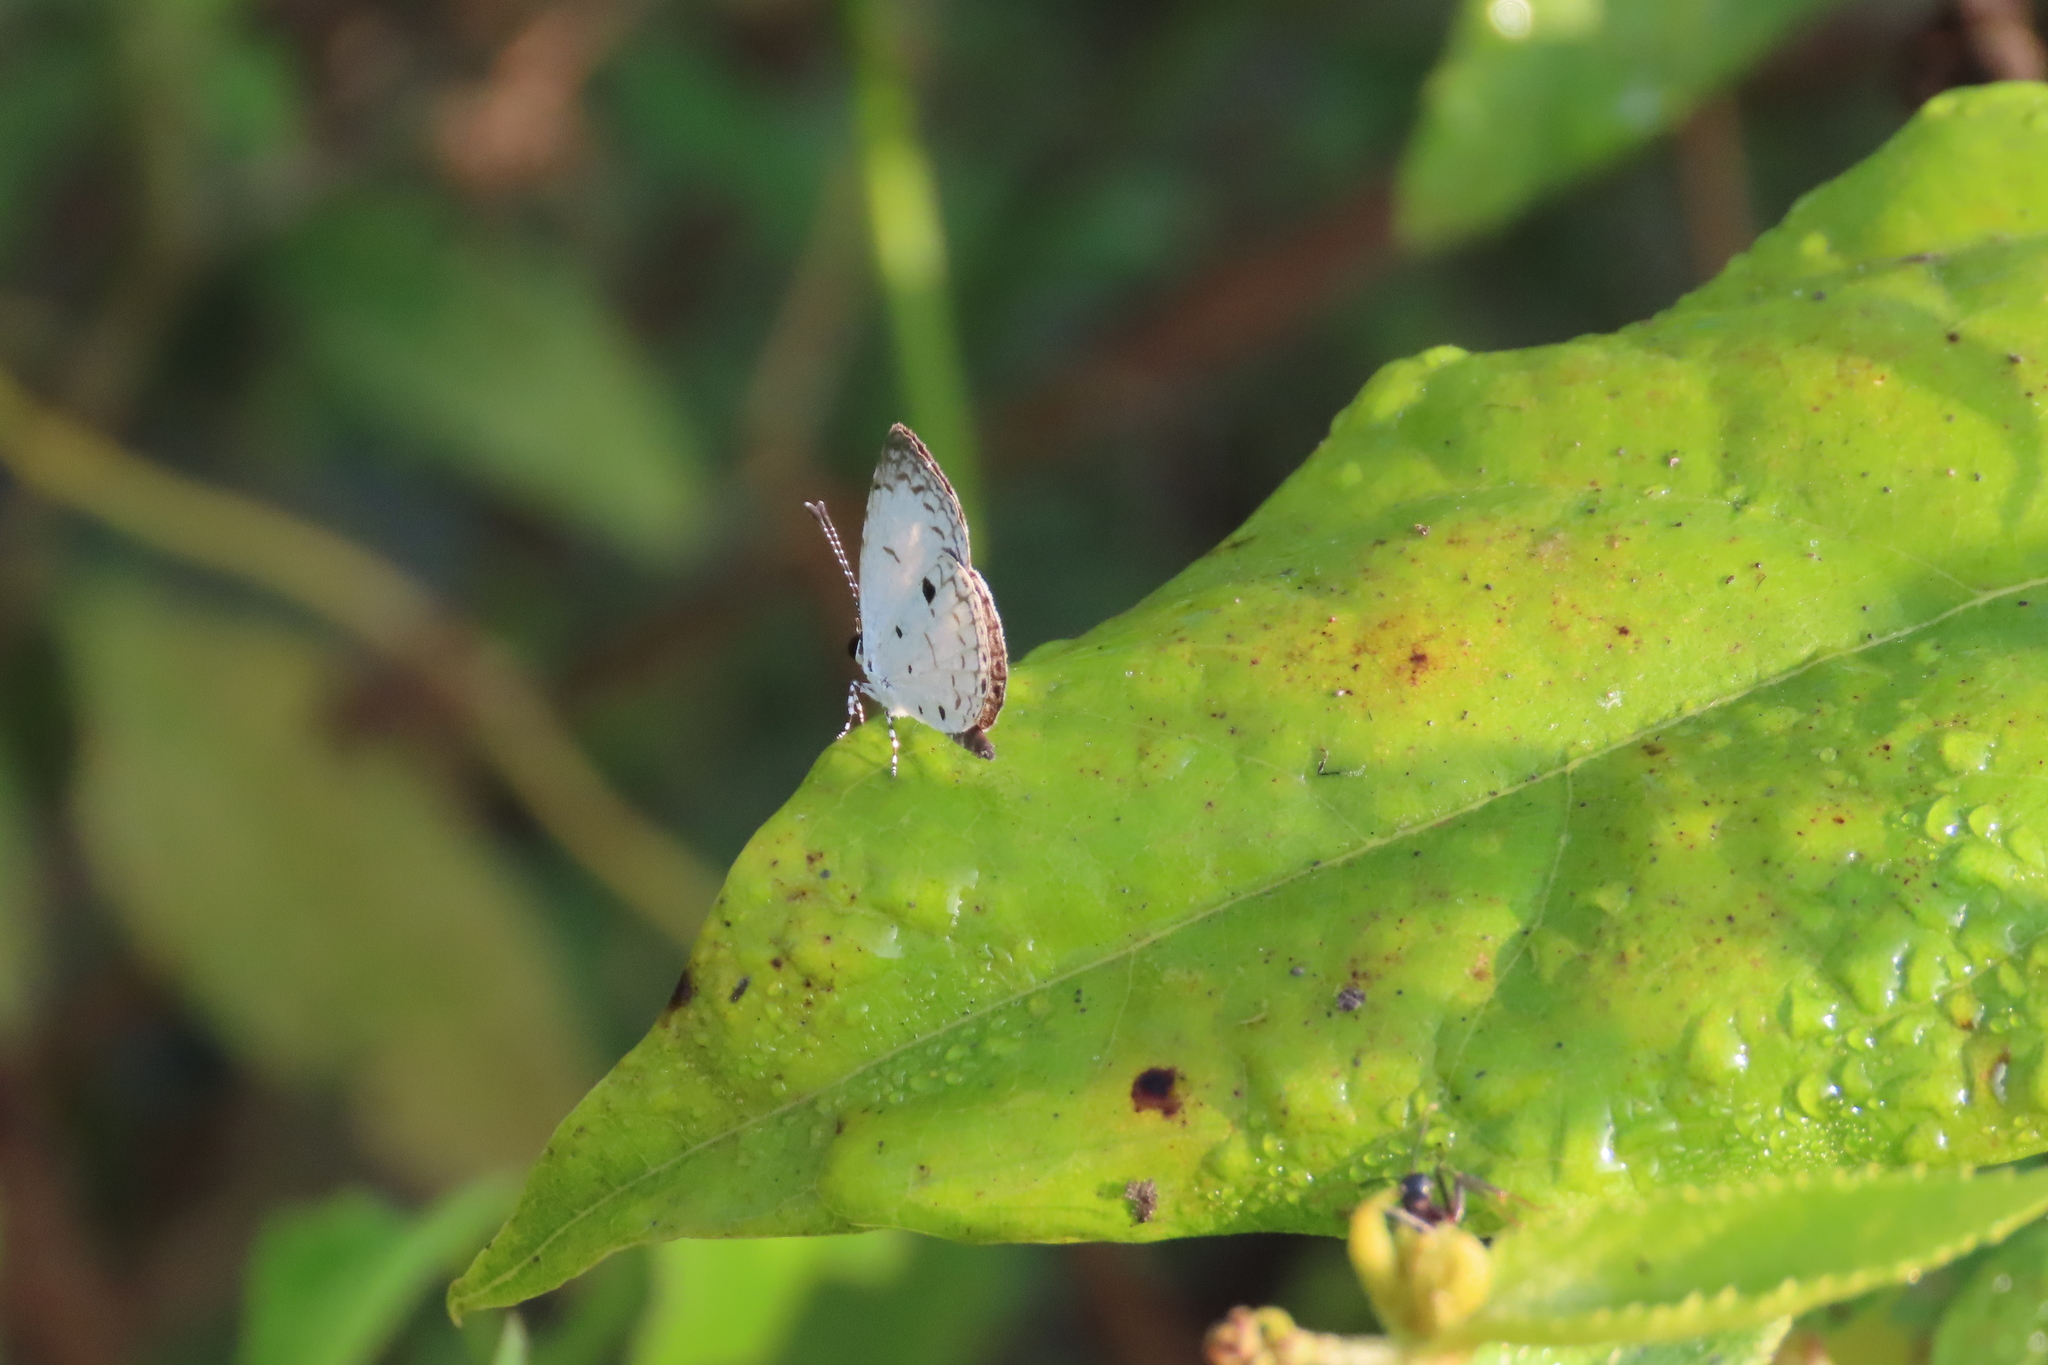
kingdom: Animalia
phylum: Arthropoda
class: Insecta
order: Lepidoptera
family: Lycaenidae
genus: Neopithecops
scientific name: Neopithecops zalmora
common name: Quaker
